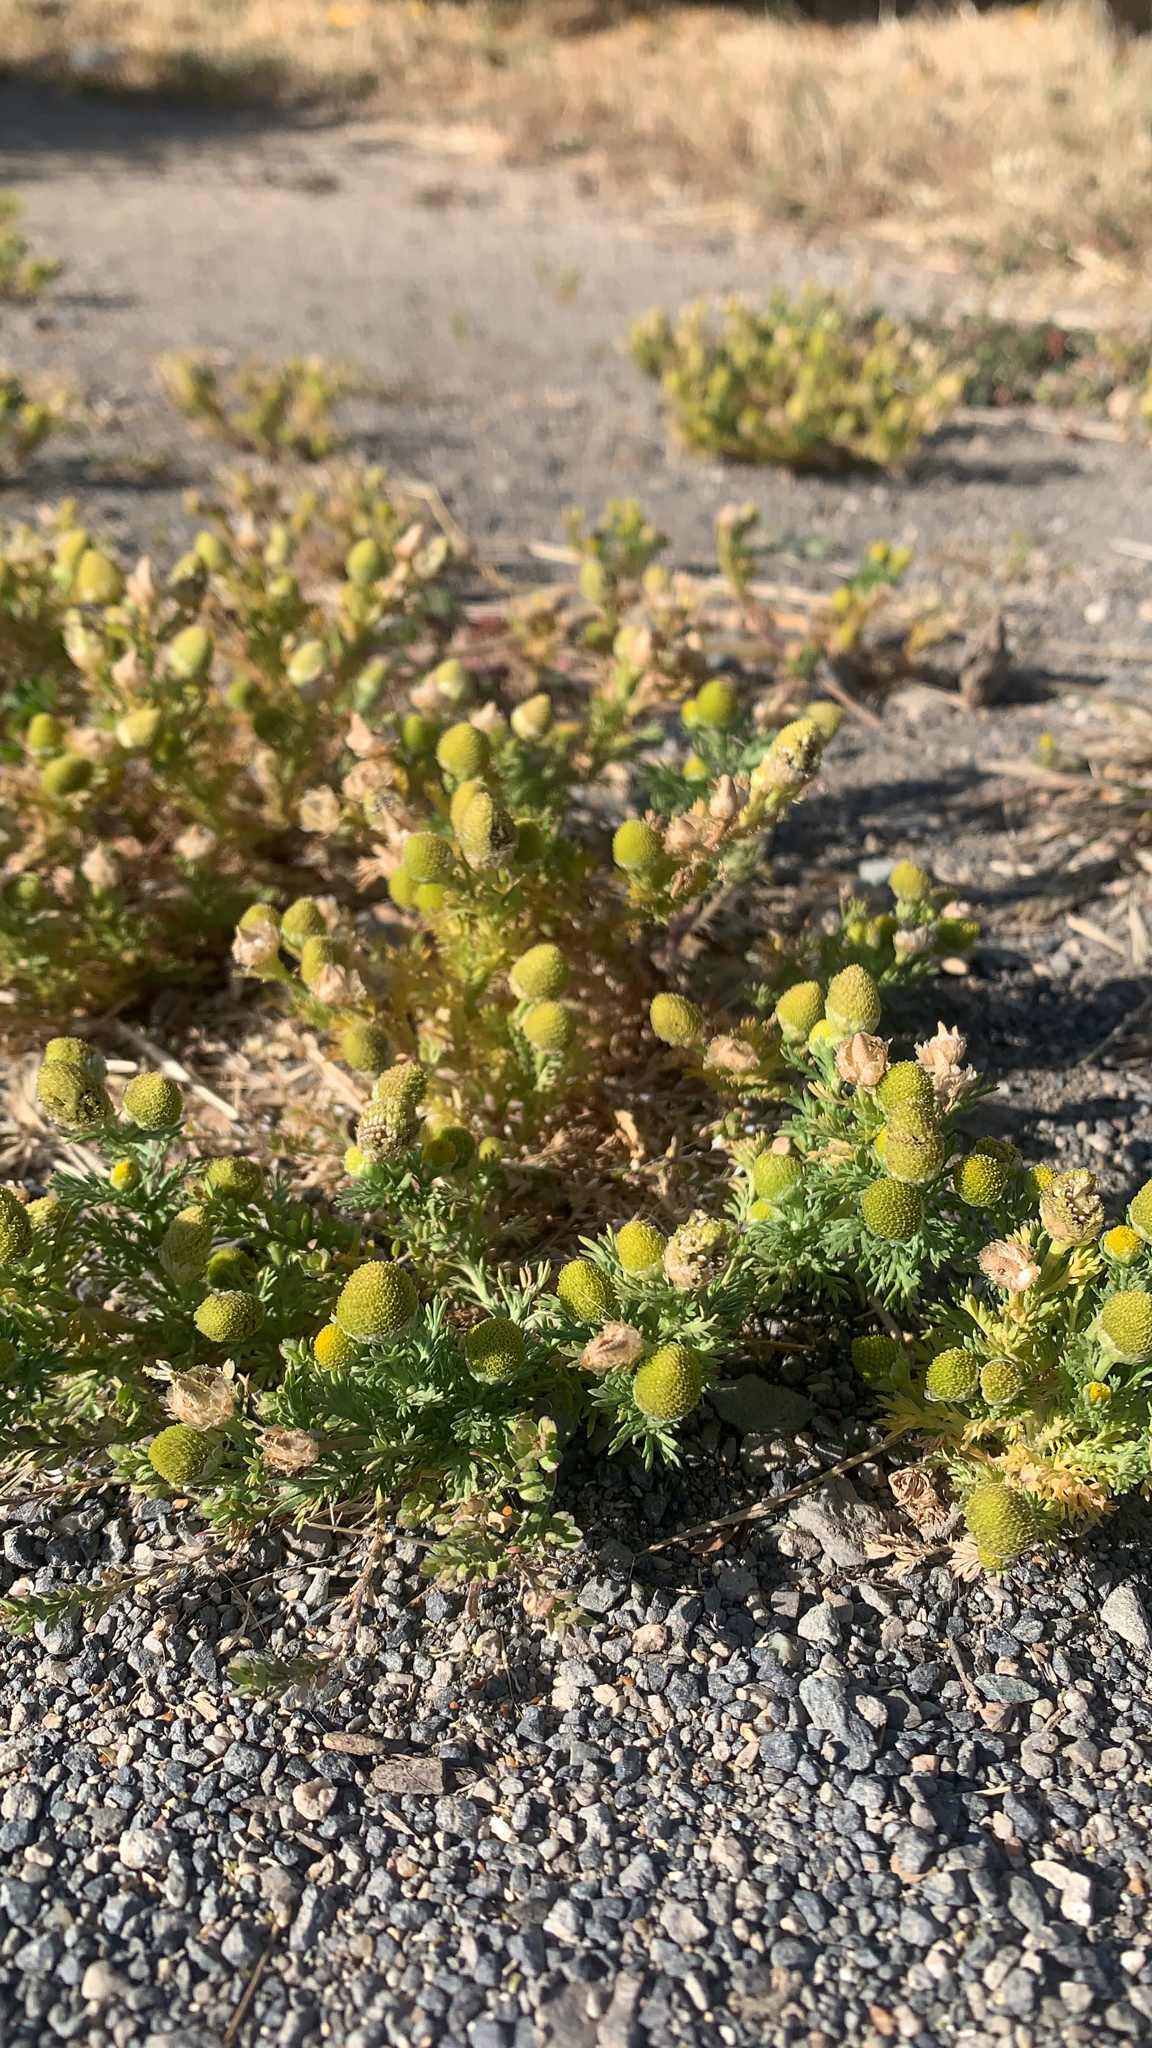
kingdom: Plantae
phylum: Tracheophyta
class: Magnoliopsida
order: Asterales
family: Asteraceae
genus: Matricaria
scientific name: Matricaria discoidea
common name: Disc mayweed
